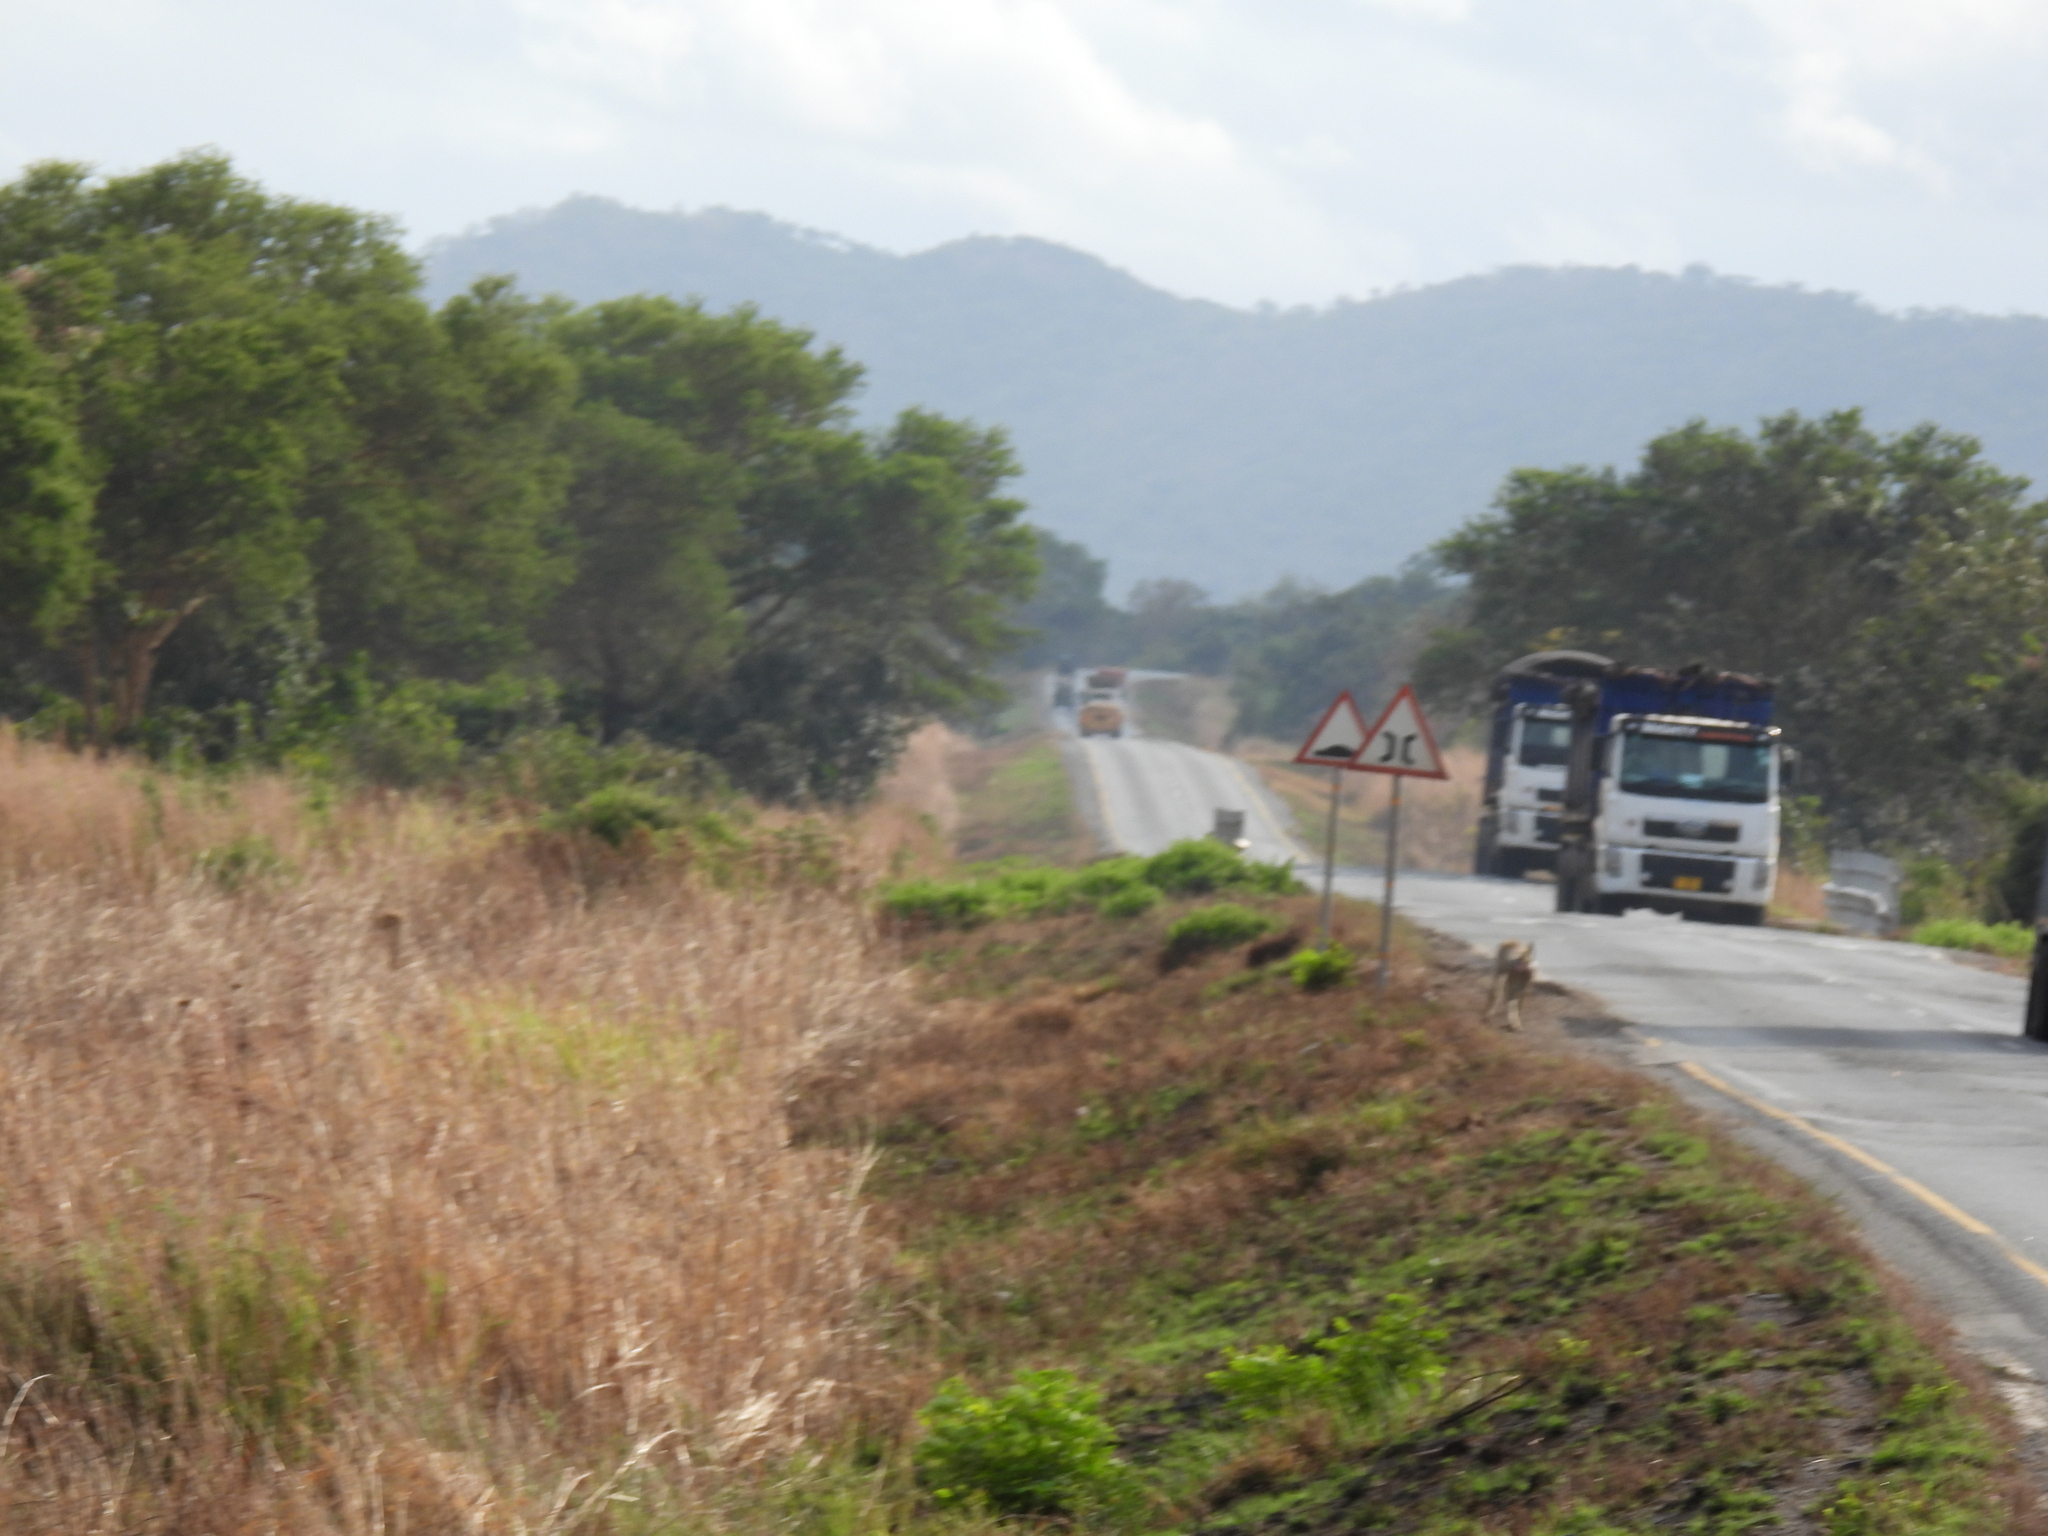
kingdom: Animalia
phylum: Chordata
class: Mammalia
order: Primates
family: Cercopithecidae
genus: Papio
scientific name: Papio cynocephalus
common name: Yellow baboon
